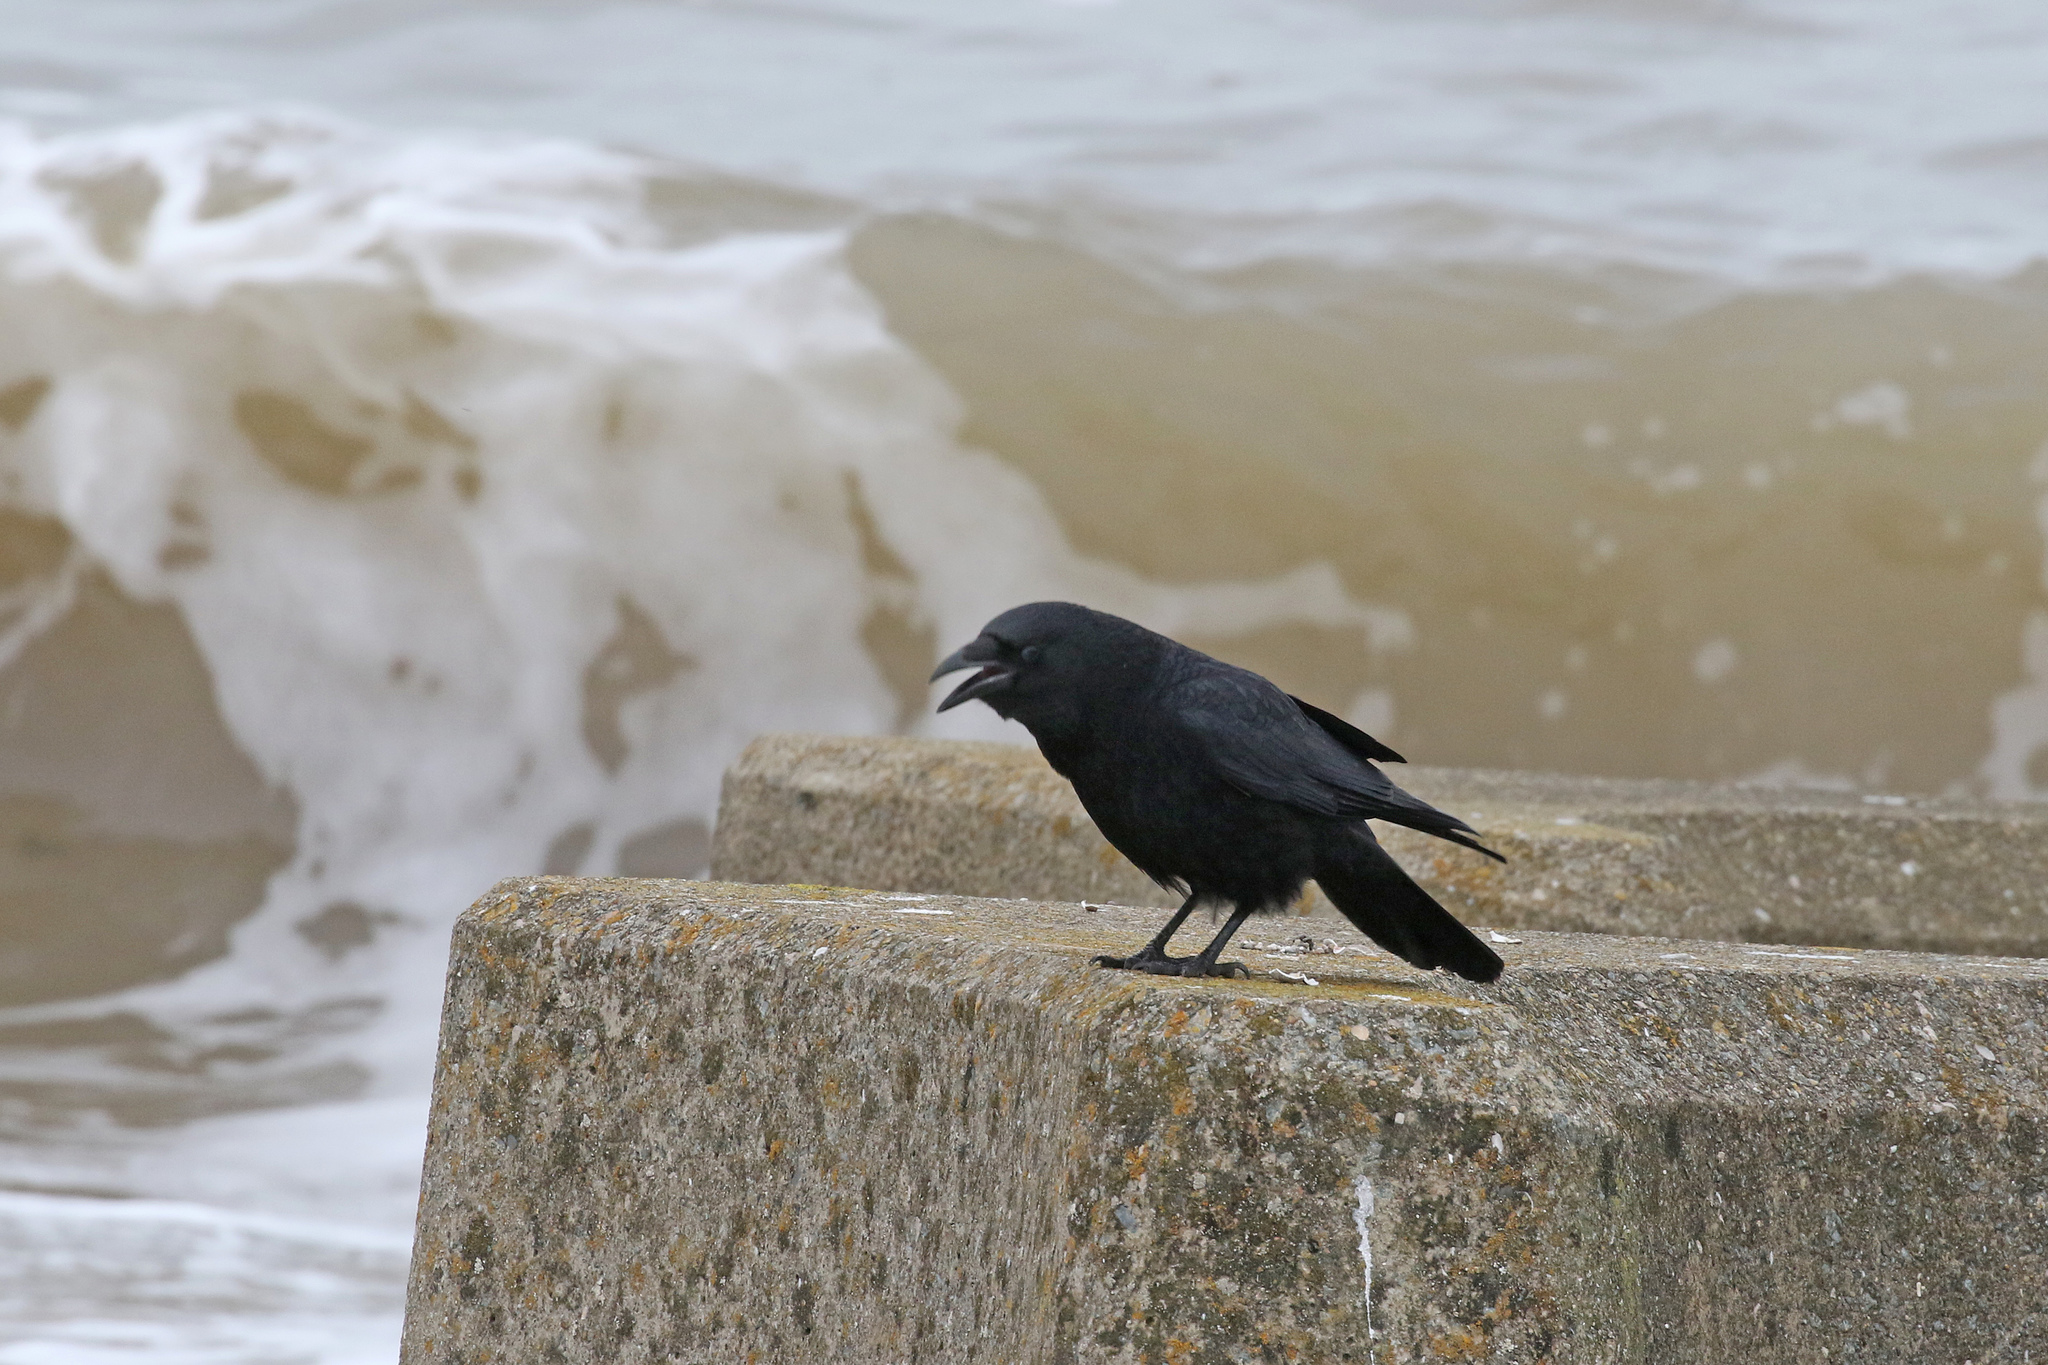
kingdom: Animalia
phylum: Chordata
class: Aves
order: Passeriformes
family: Corvidae
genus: Corvus
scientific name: Corvus corone
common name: Carrion crow
